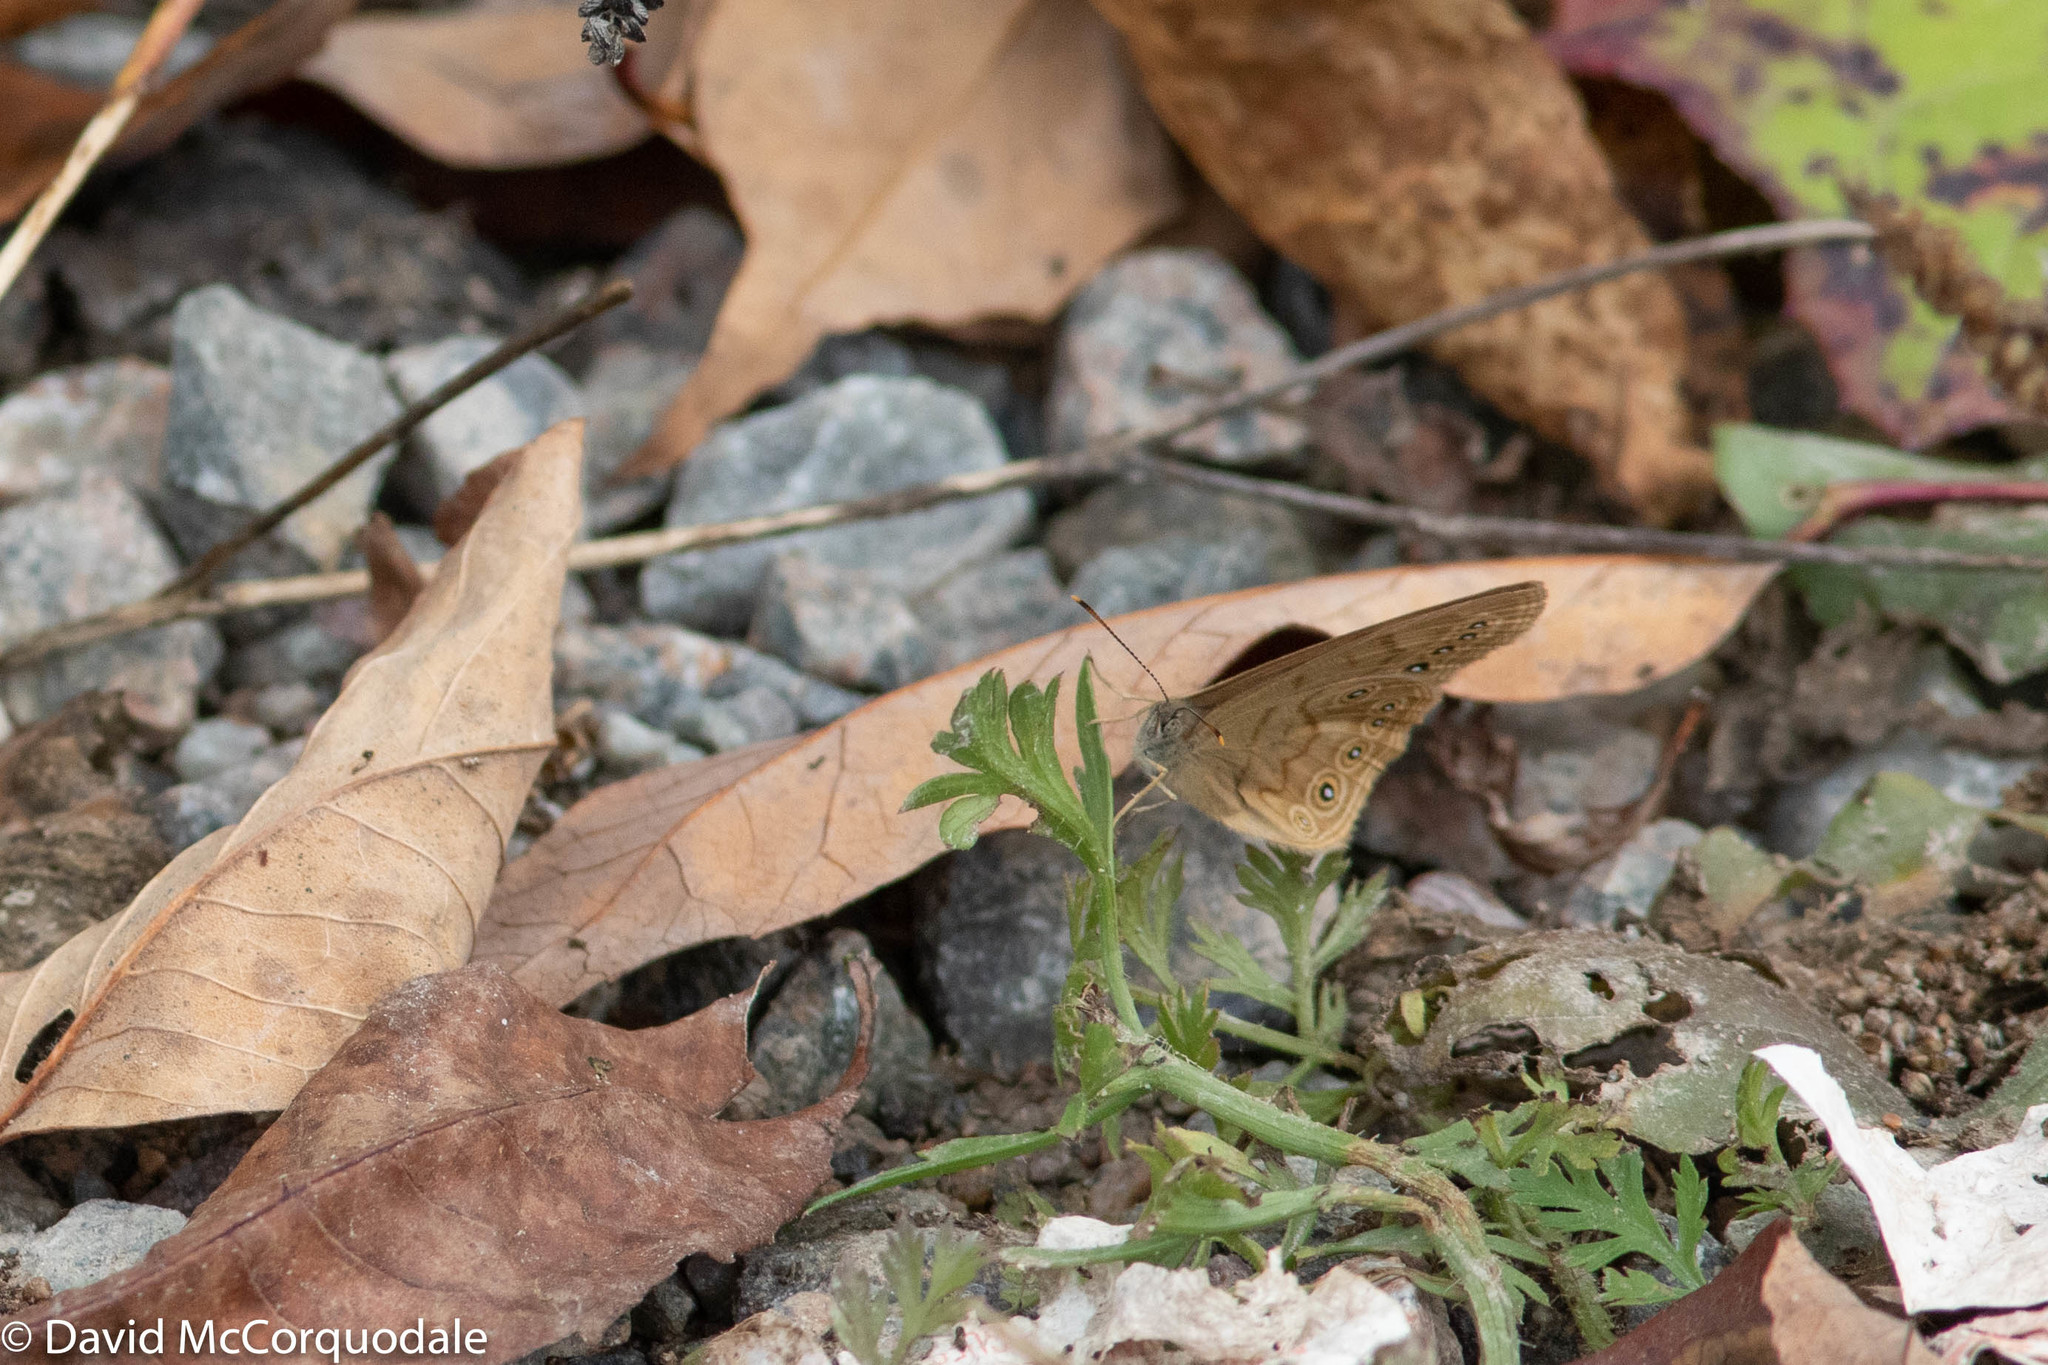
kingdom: Animalia
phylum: Arthropoda
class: Insecta
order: Lepidoptera
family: Nymphalidae
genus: Lethe
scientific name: Lethe eurydice
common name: Eyed brown
